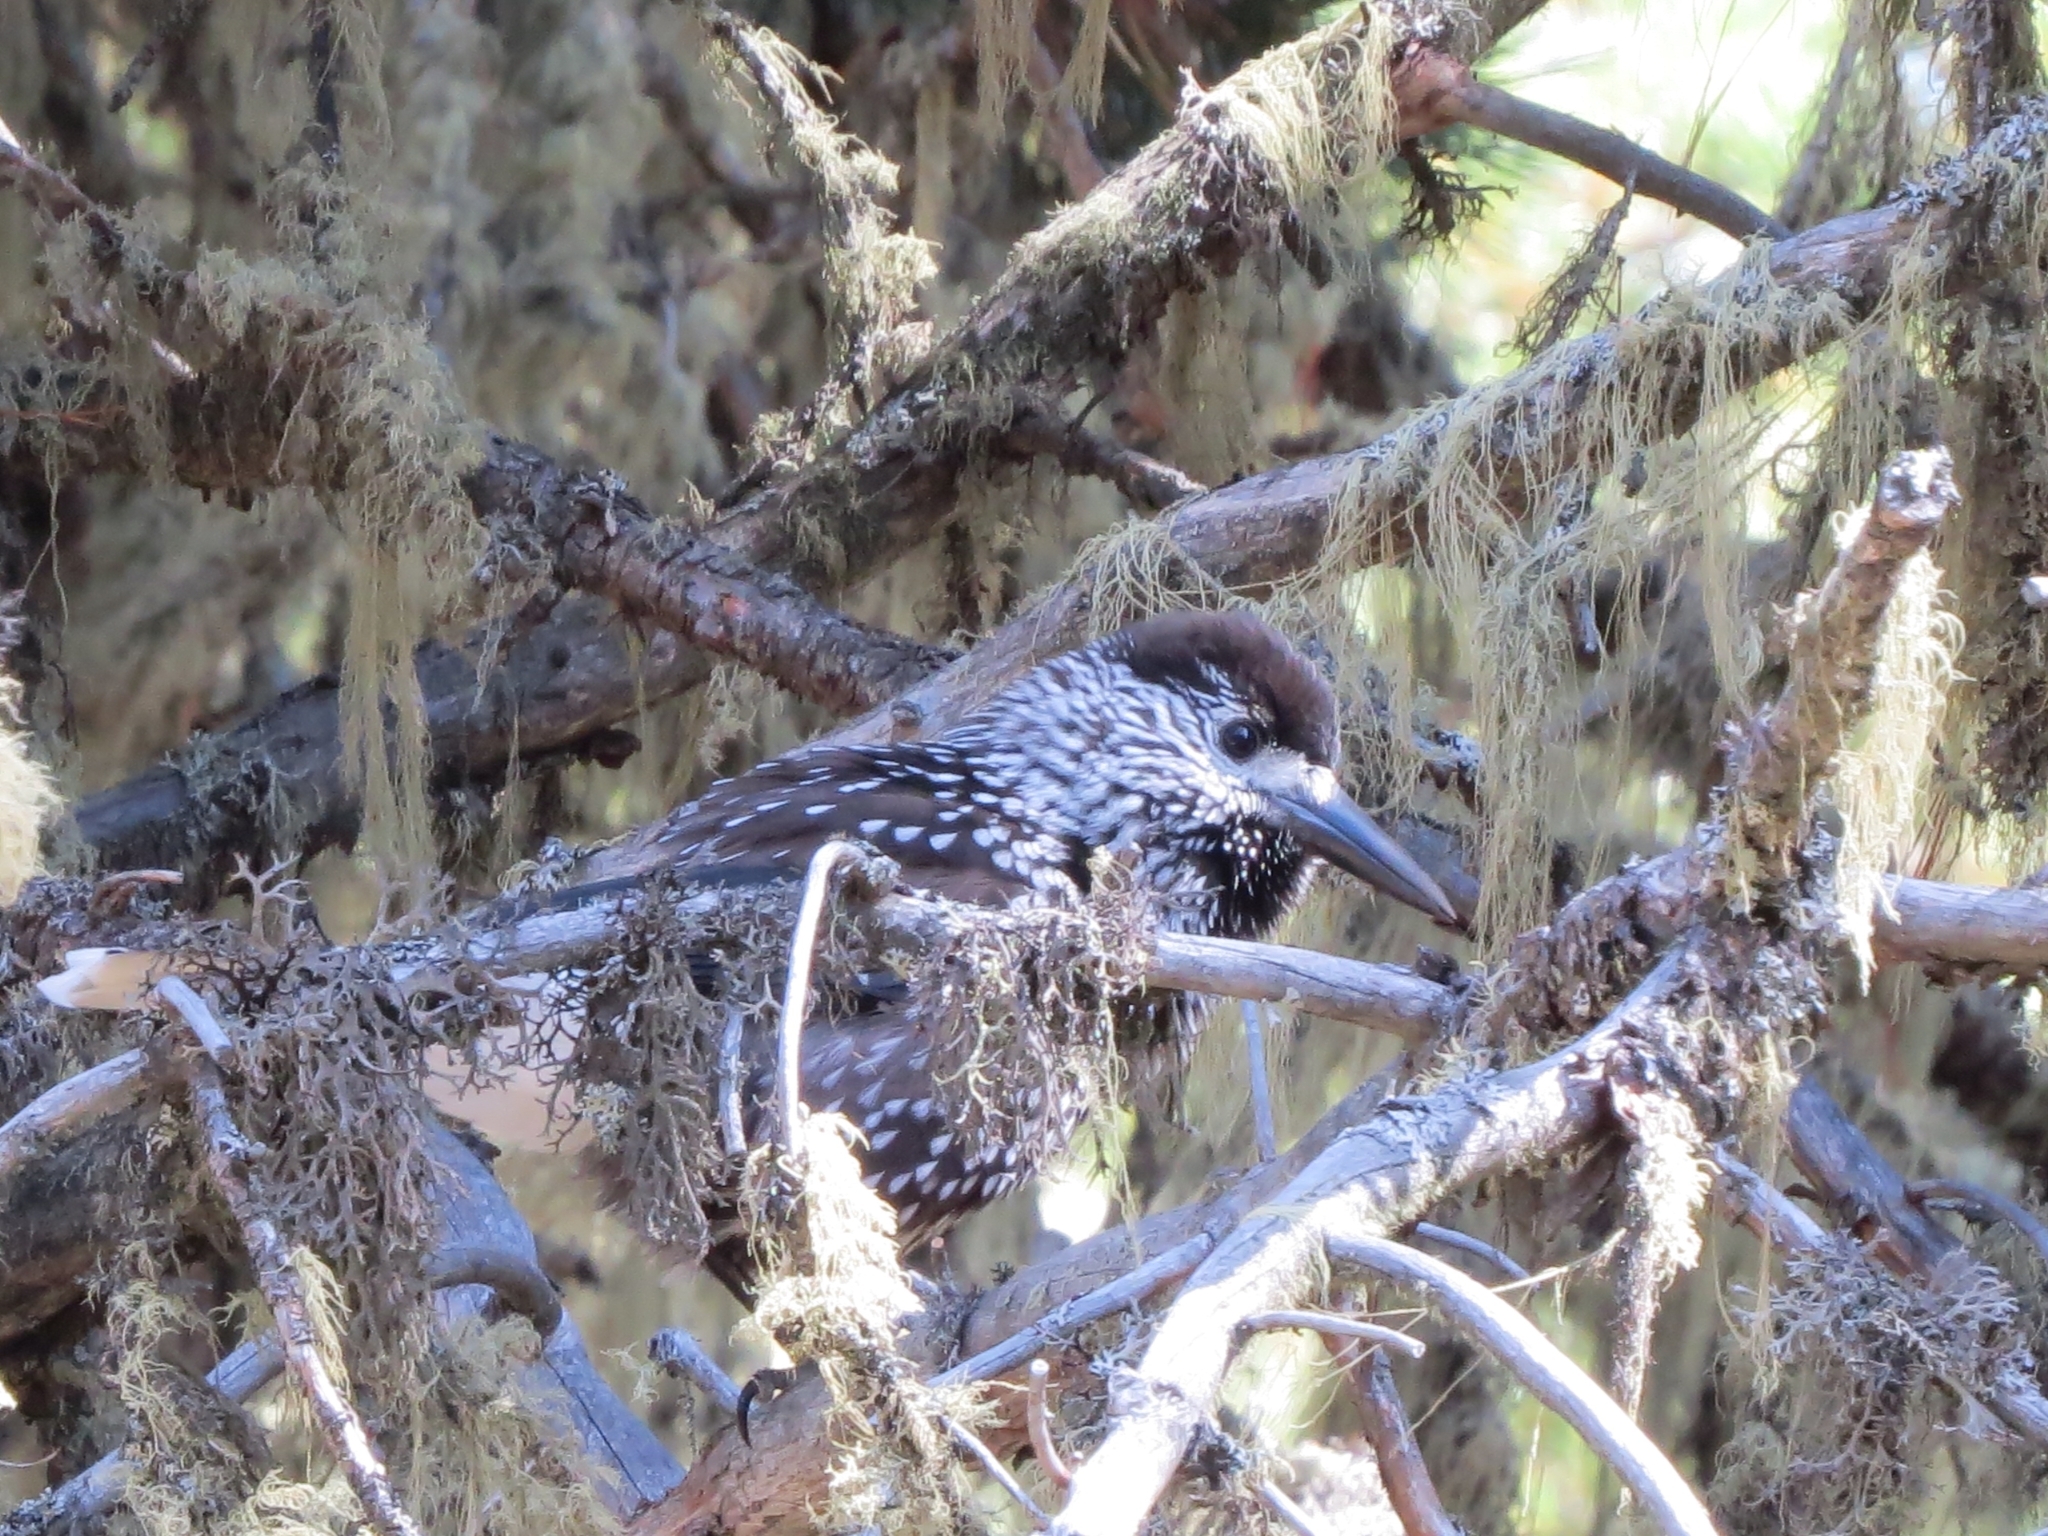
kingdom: Animalia
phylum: Chordata
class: Aves
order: Passeriformes
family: Corvidae
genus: Nucifraga
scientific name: Nucifraga caryocatactes
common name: Spotted nutcracker
